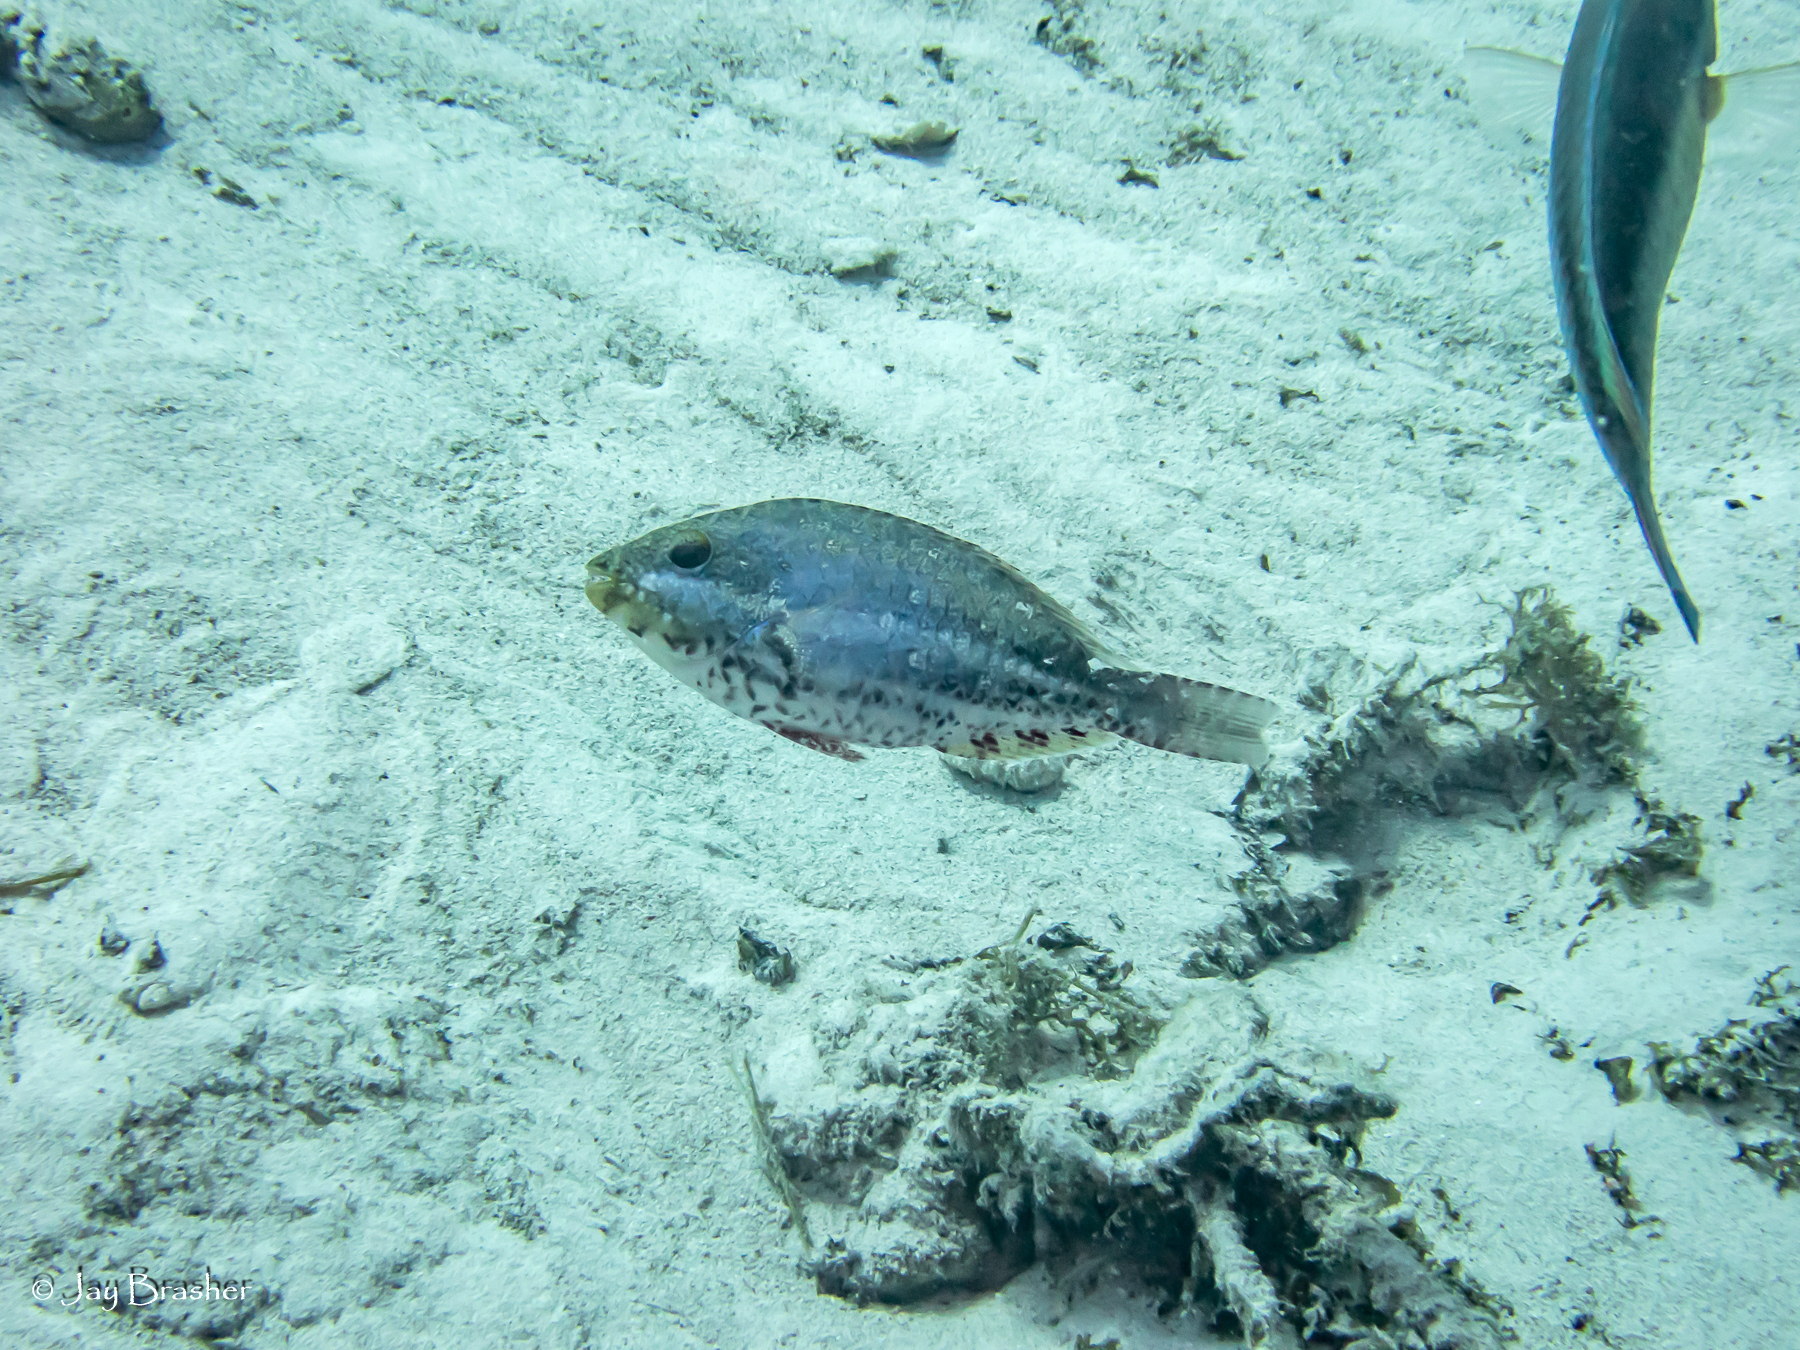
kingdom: Animalia
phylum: Chordata
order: Perciformes
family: Scaridae
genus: Sparisoma
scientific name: Sparisoma aurofrenatum
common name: Redband parrotfish
